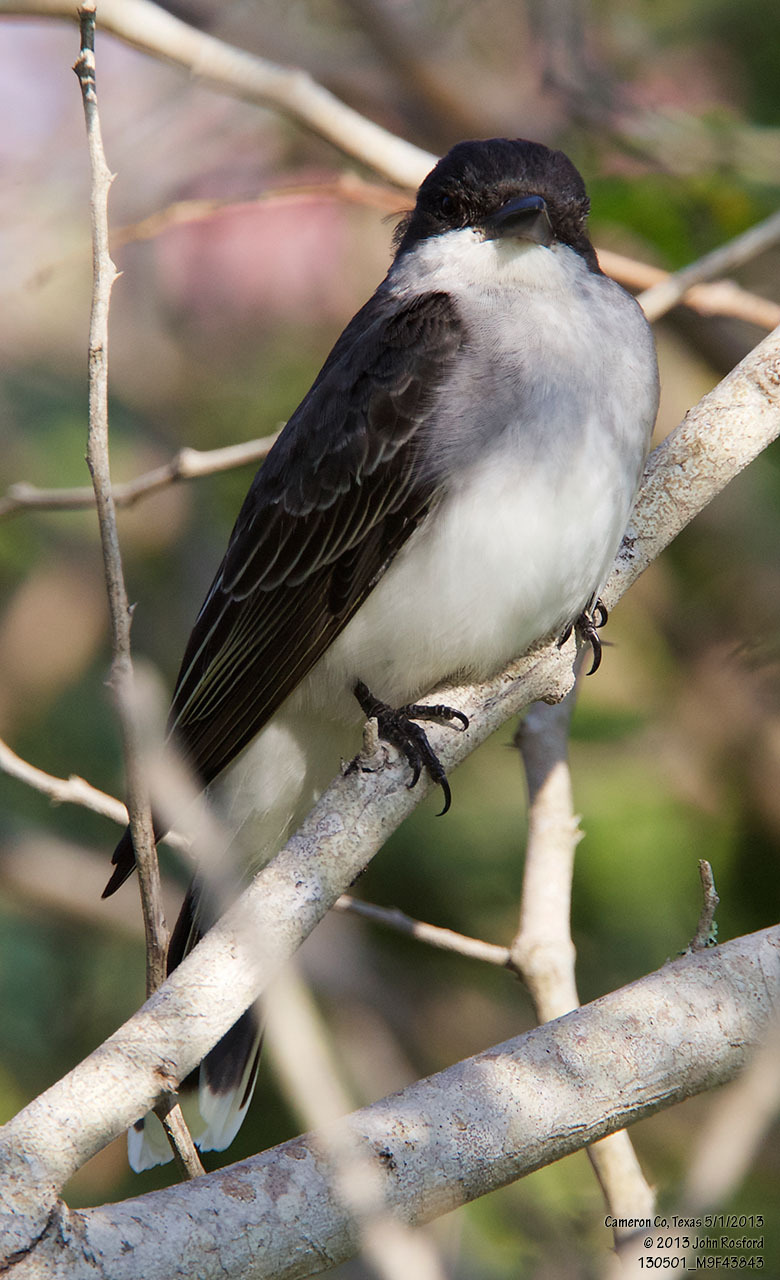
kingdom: Animalia
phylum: Chordata
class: Aves
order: Passeriformes
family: Tyrannidae
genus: Tyrannus
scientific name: Tyrannus tyrannus
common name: Eastern kingbird
